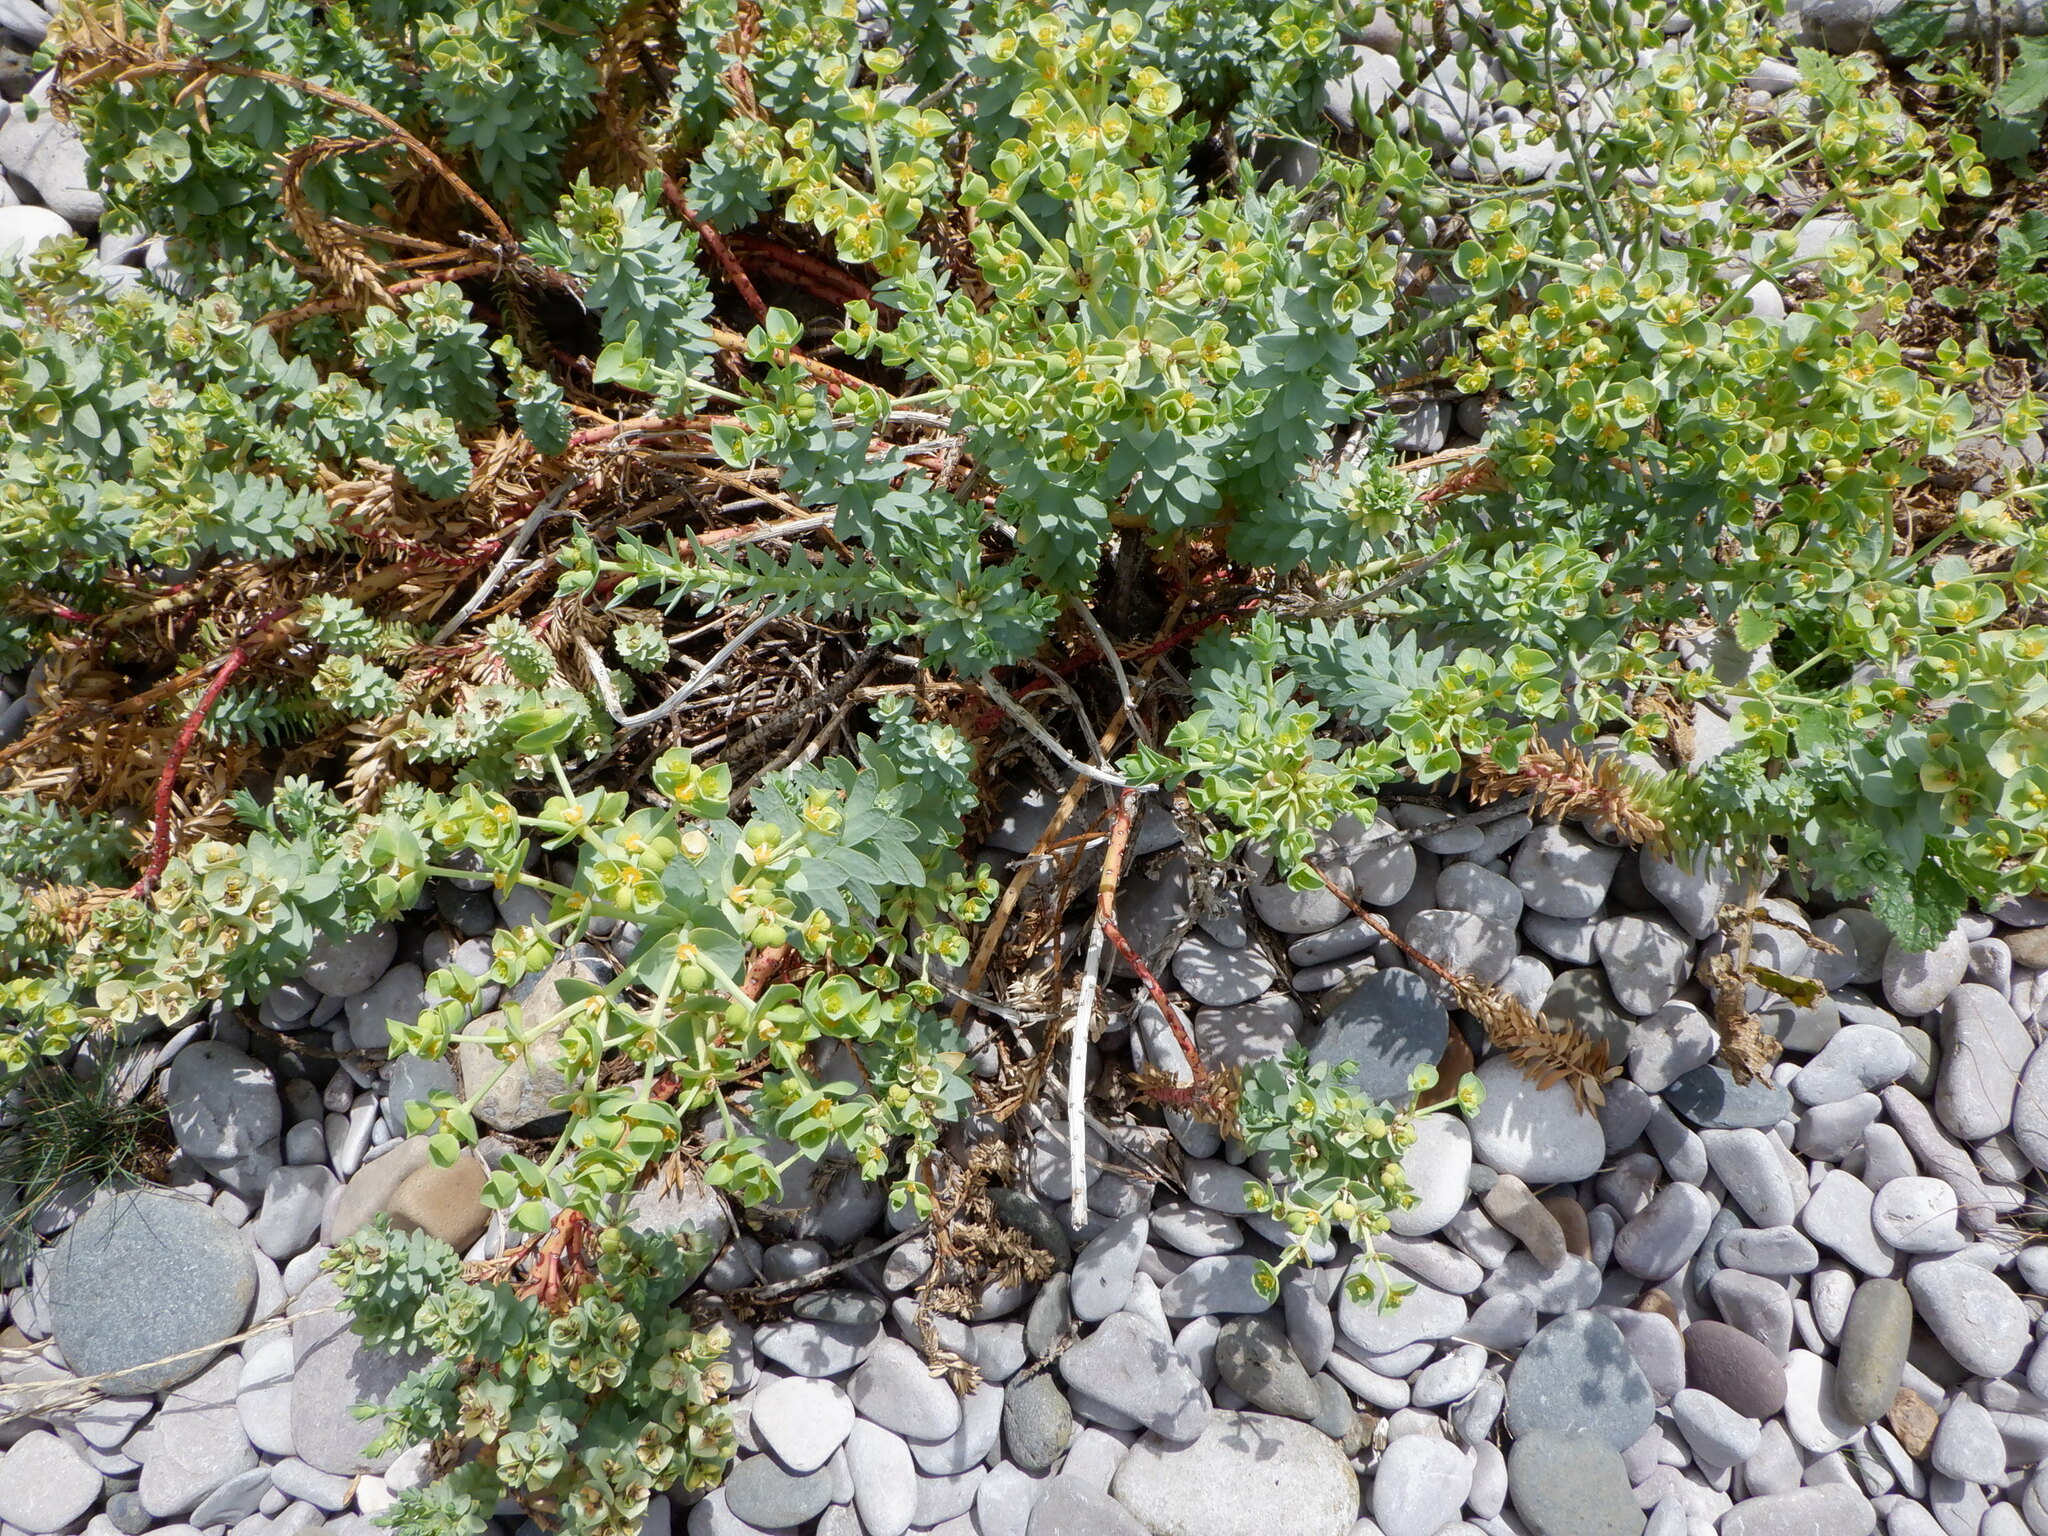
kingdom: Plantae
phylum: Tracheophyta
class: Magnoliopsida
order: Malpighiales
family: Euphorbiaceae
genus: Euphorbia
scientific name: Euphorbia paralias
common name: Sea spurge
